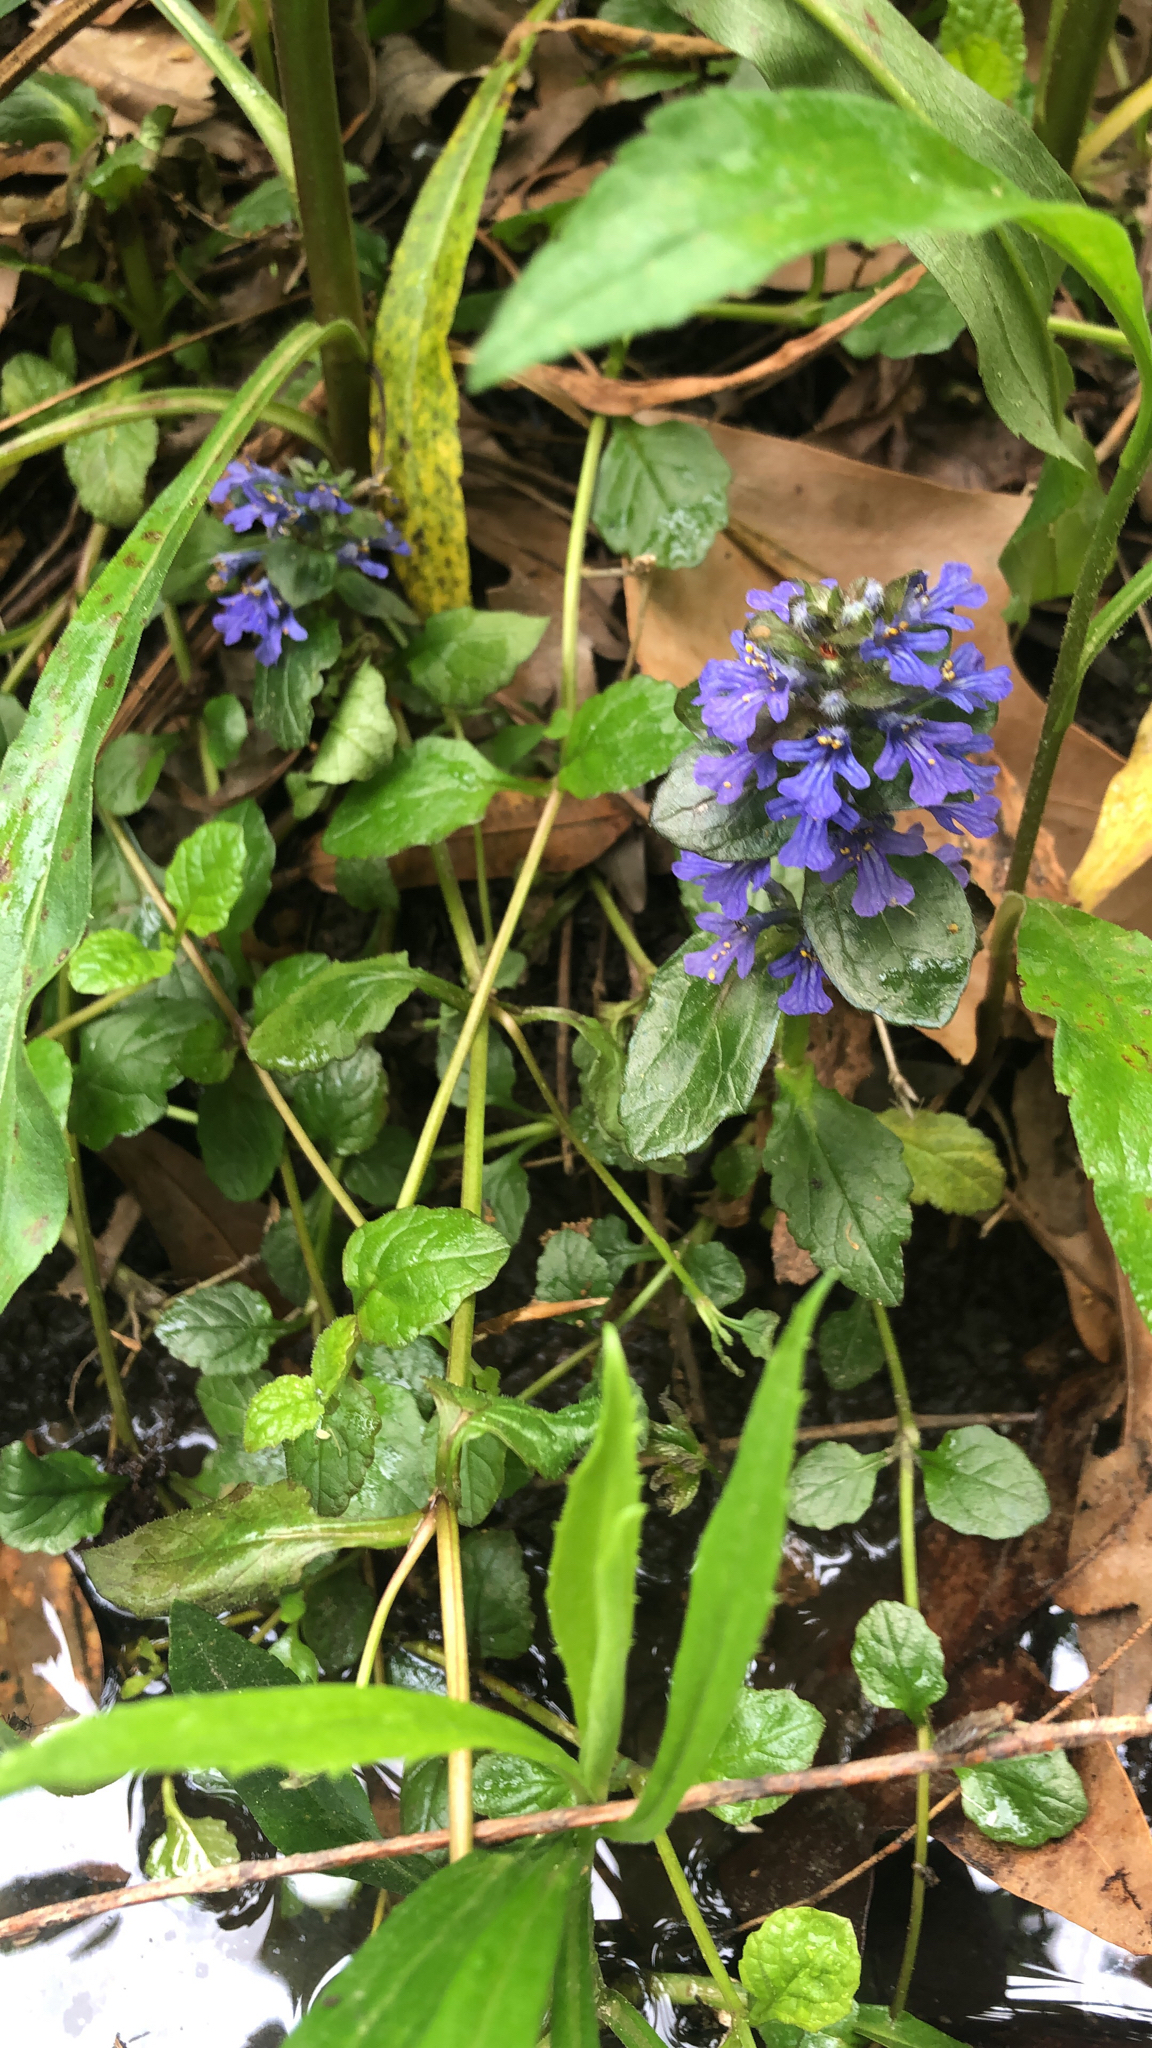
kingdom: Plantae
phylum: Tracheophyta
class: Magnoliopsida
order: Lamiales
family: Lamiaceae
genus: Ajuga
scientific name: Ajuga reptans
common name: Bugle
